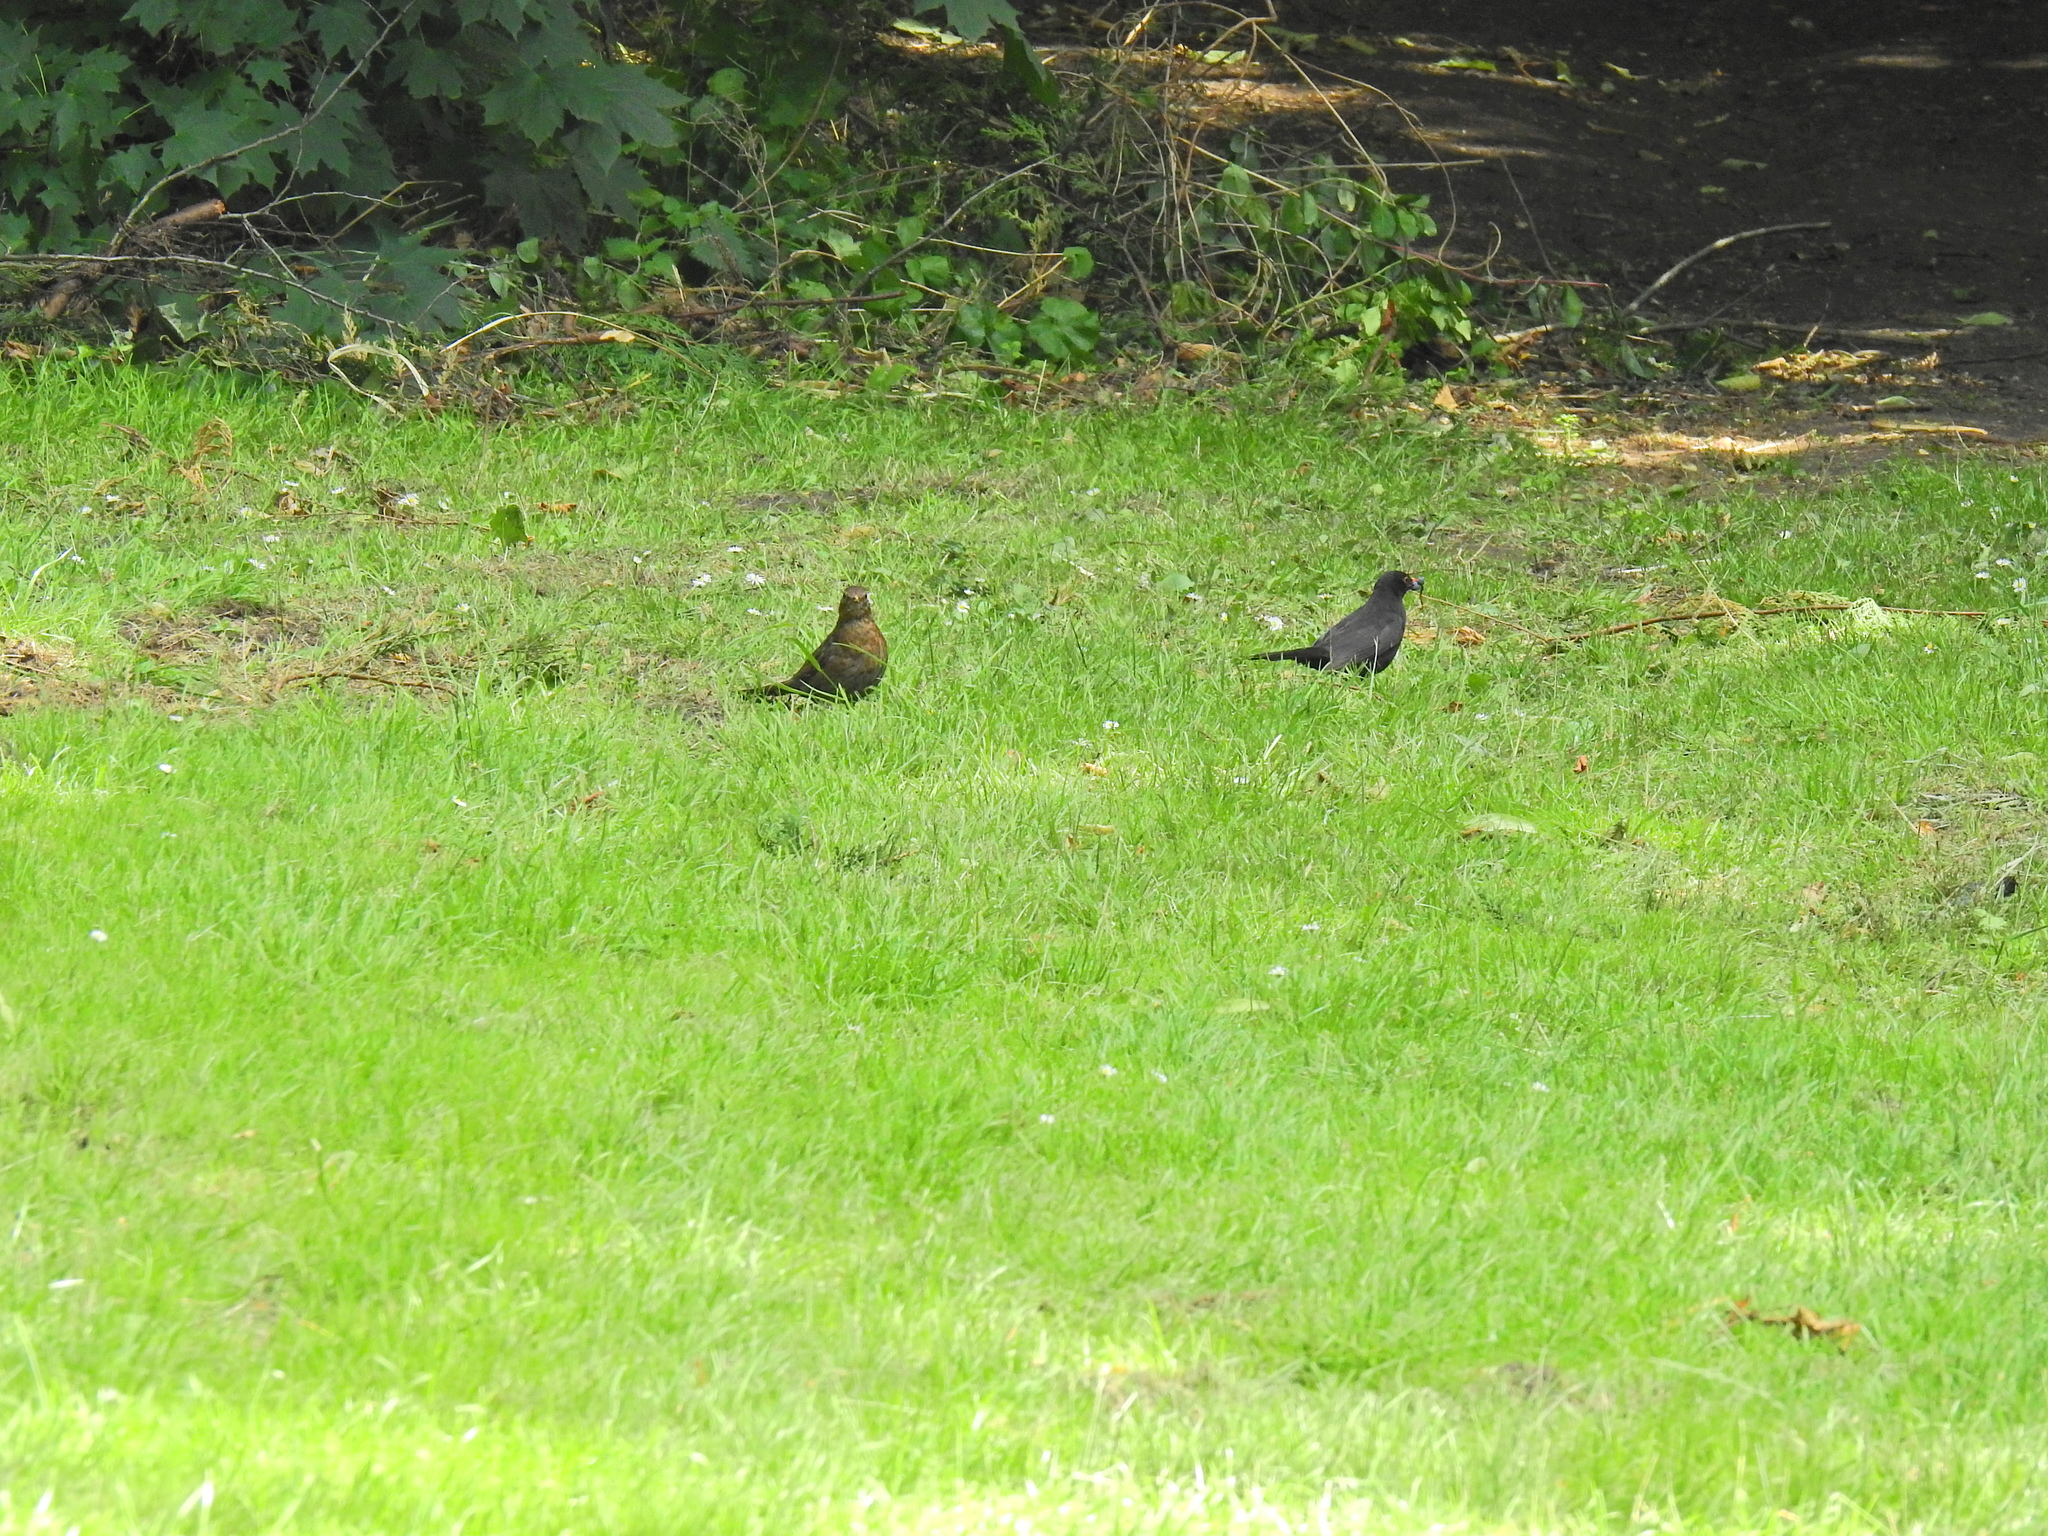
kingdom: Animalia
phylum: Chordata
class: Aves
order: Passeriformes
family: Turdidae
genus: Turdus
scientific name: Turdus merula
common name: Common blackbird
